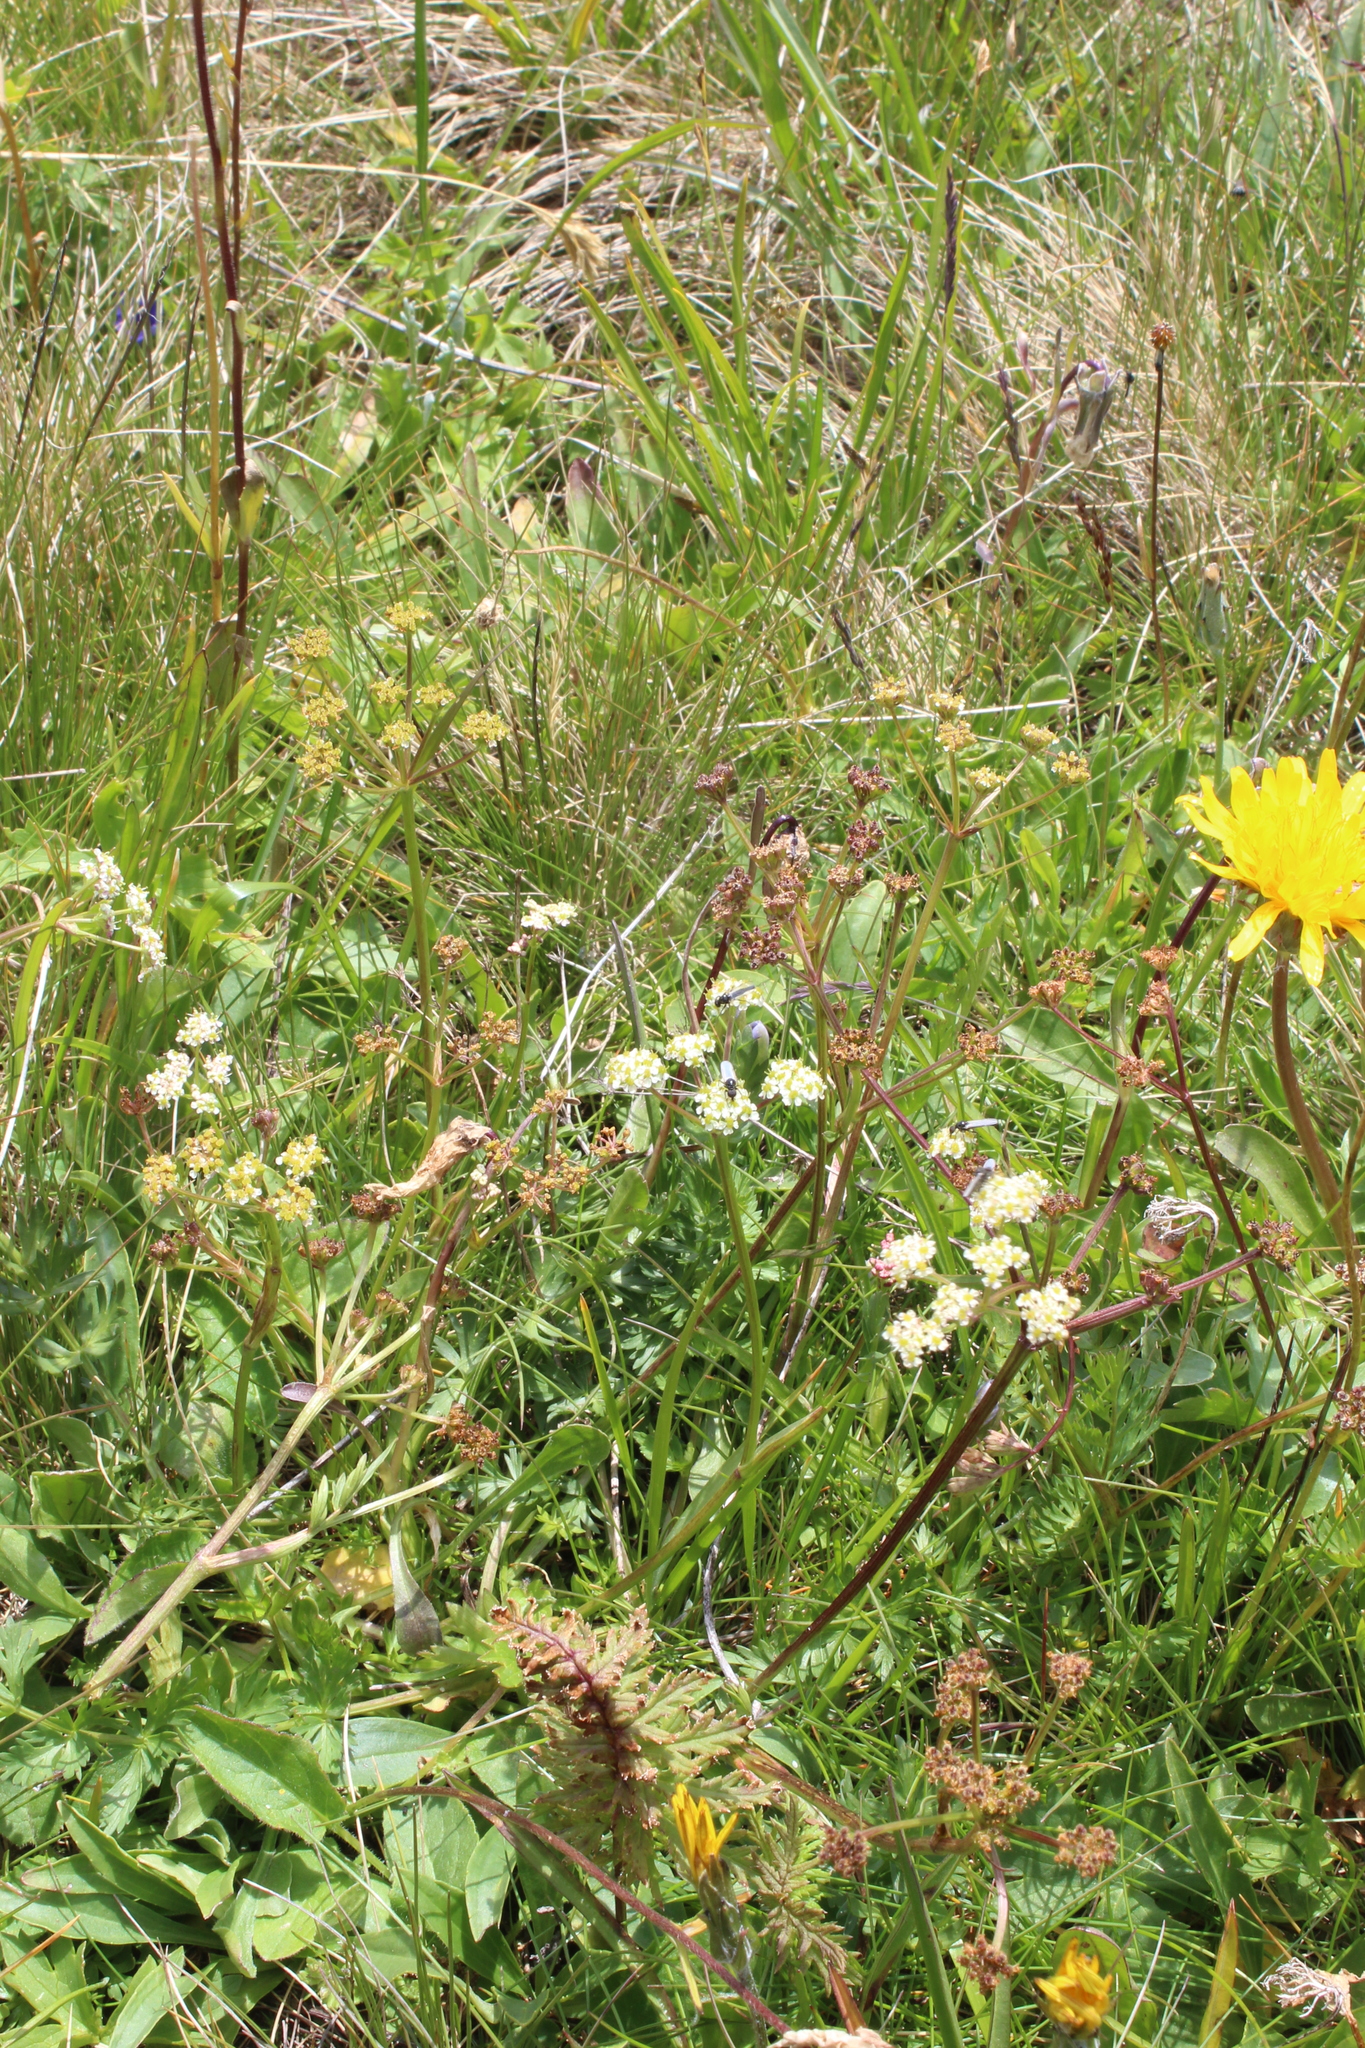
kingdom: Plantae
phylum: Tracheophyta
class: Magnoliopsida
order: Apiales
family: Apiaceae
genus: Carum
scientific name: Carum caucasicum
